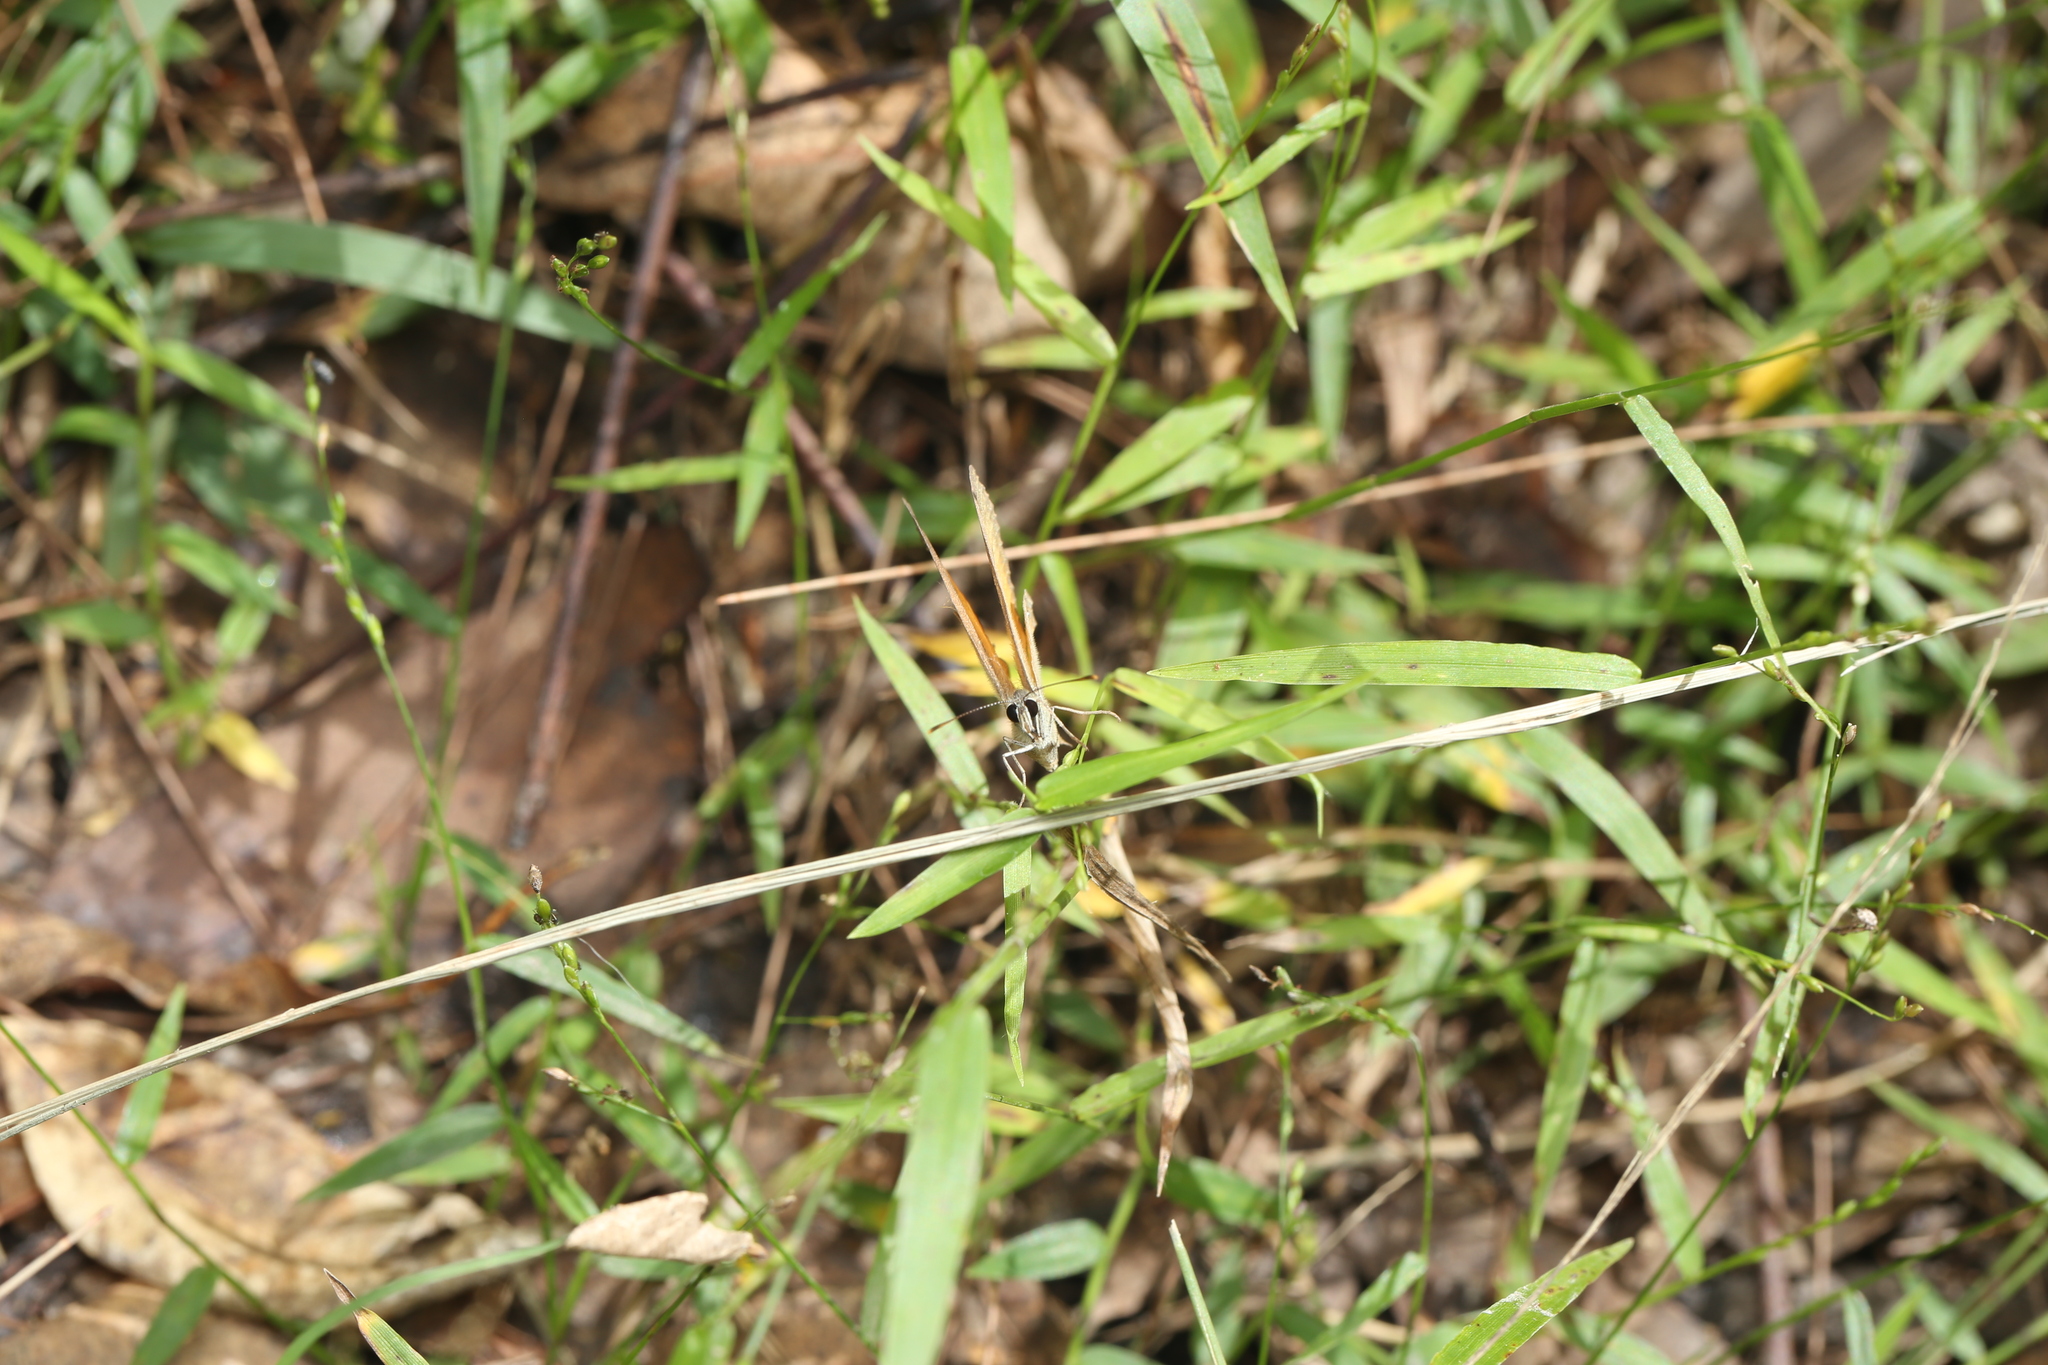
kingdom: Animalia
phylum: Arthropoda
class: Insecta
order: Lepidoptera
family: Nymphalidae
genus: Hypocysta
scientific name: Hypocysta adiante
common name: Orange ringlet
